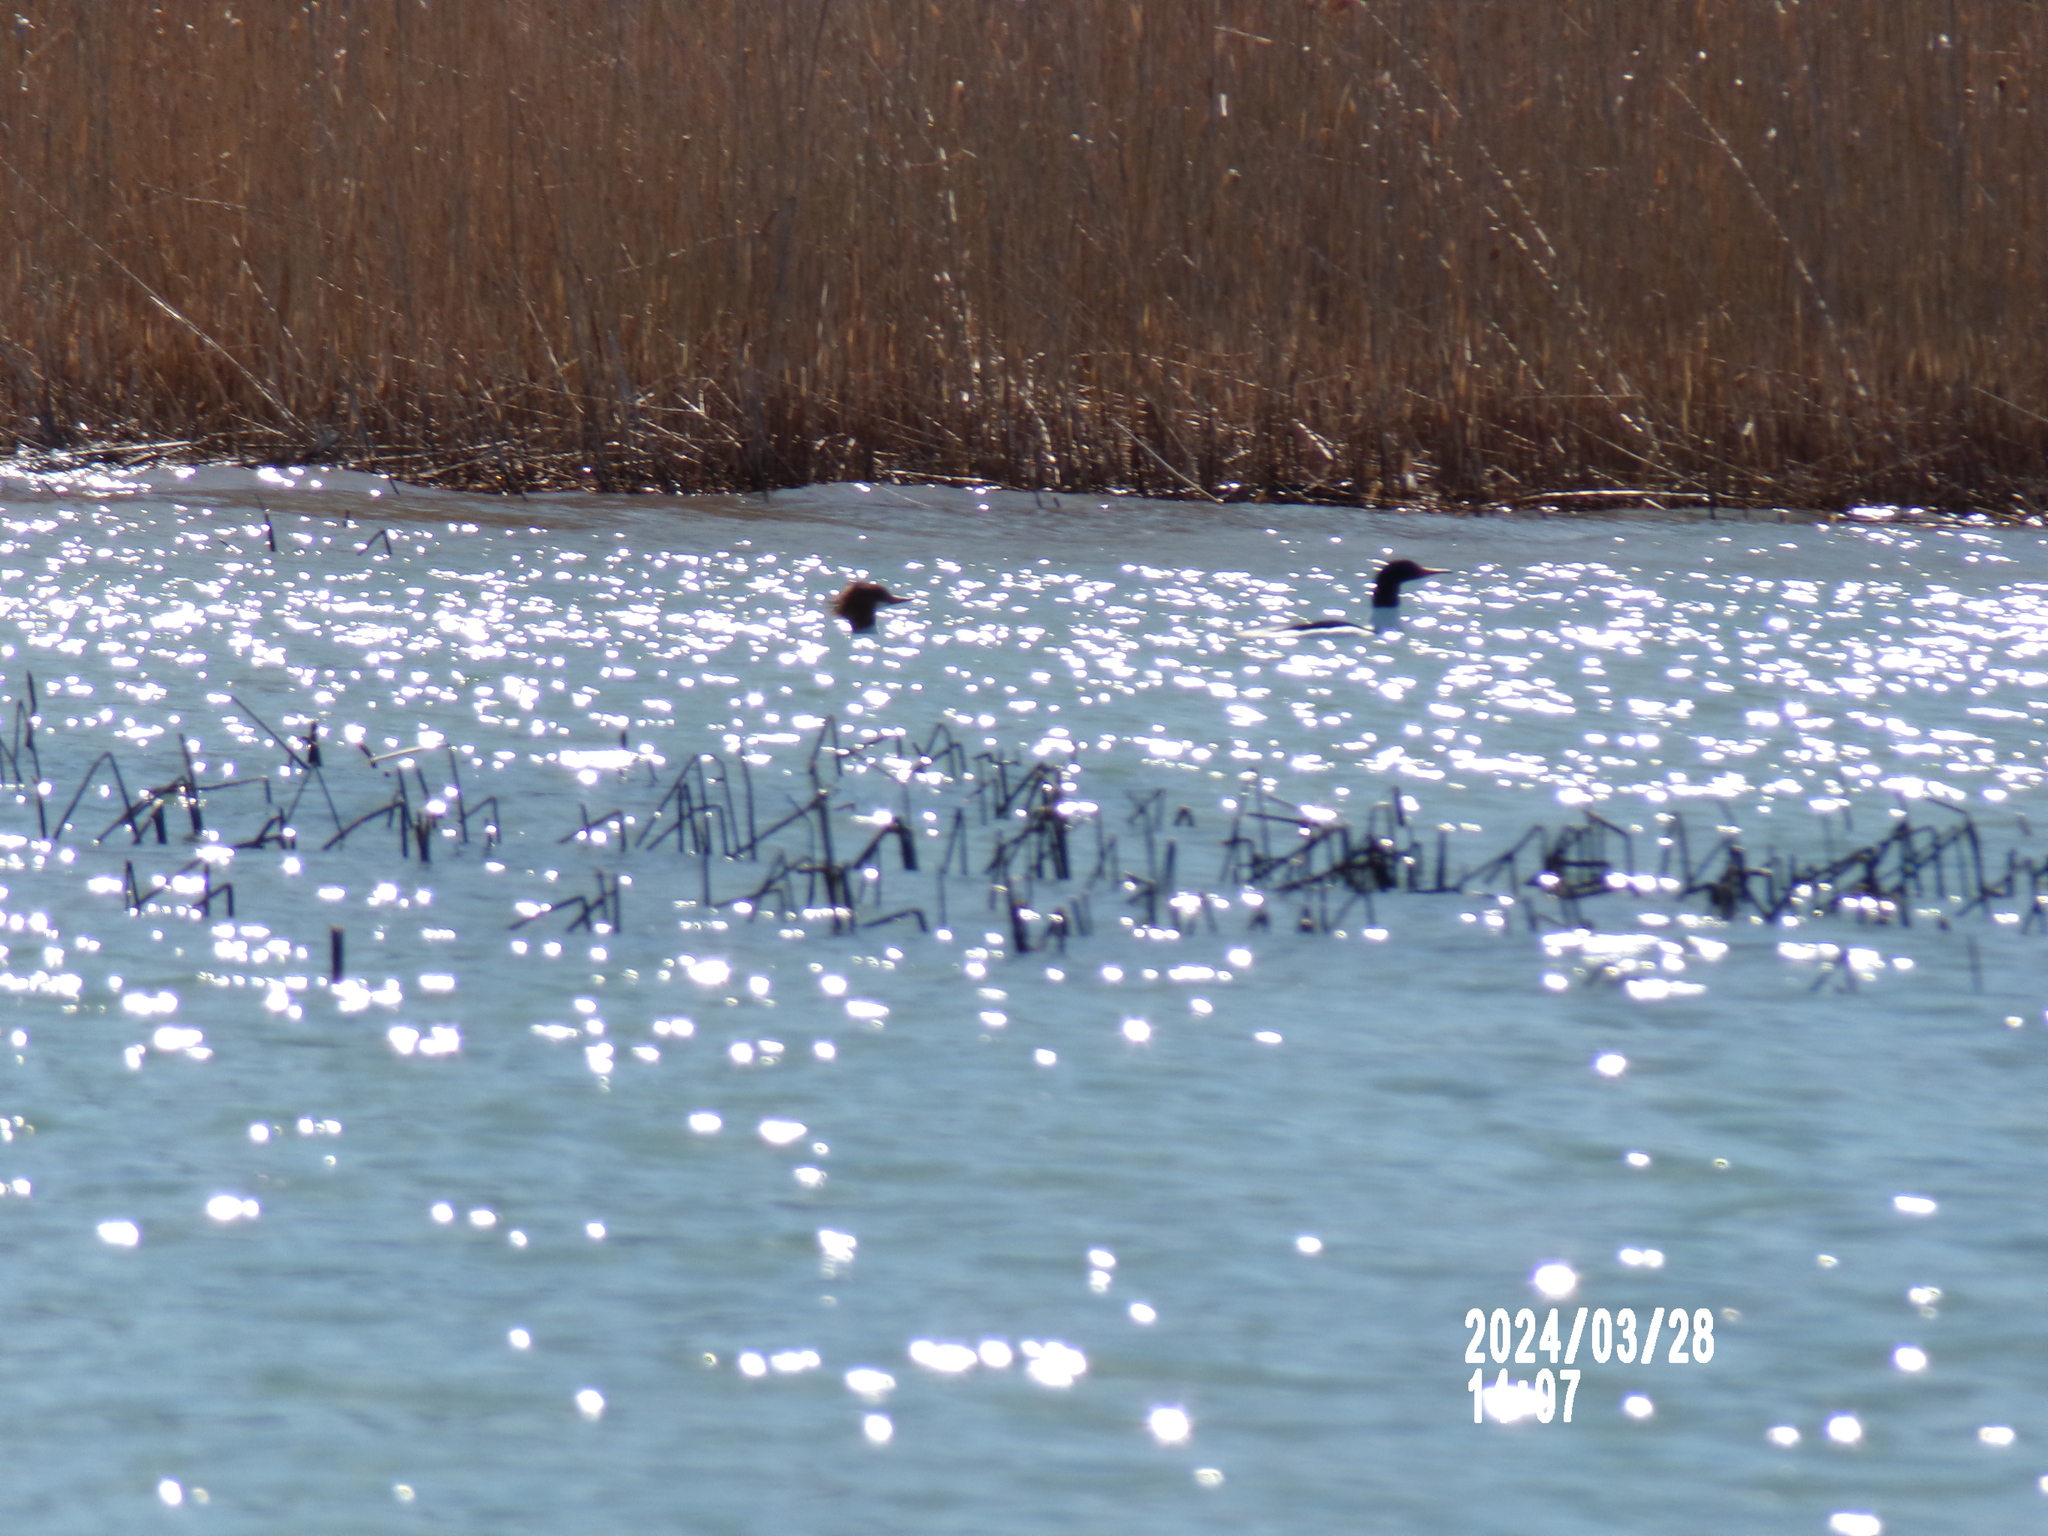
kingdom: Animalia
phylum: Chordata
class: Aves
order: Anseriformes
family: Anatidae
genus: Mergus
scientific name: Mergus merganser
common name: Common merganser
